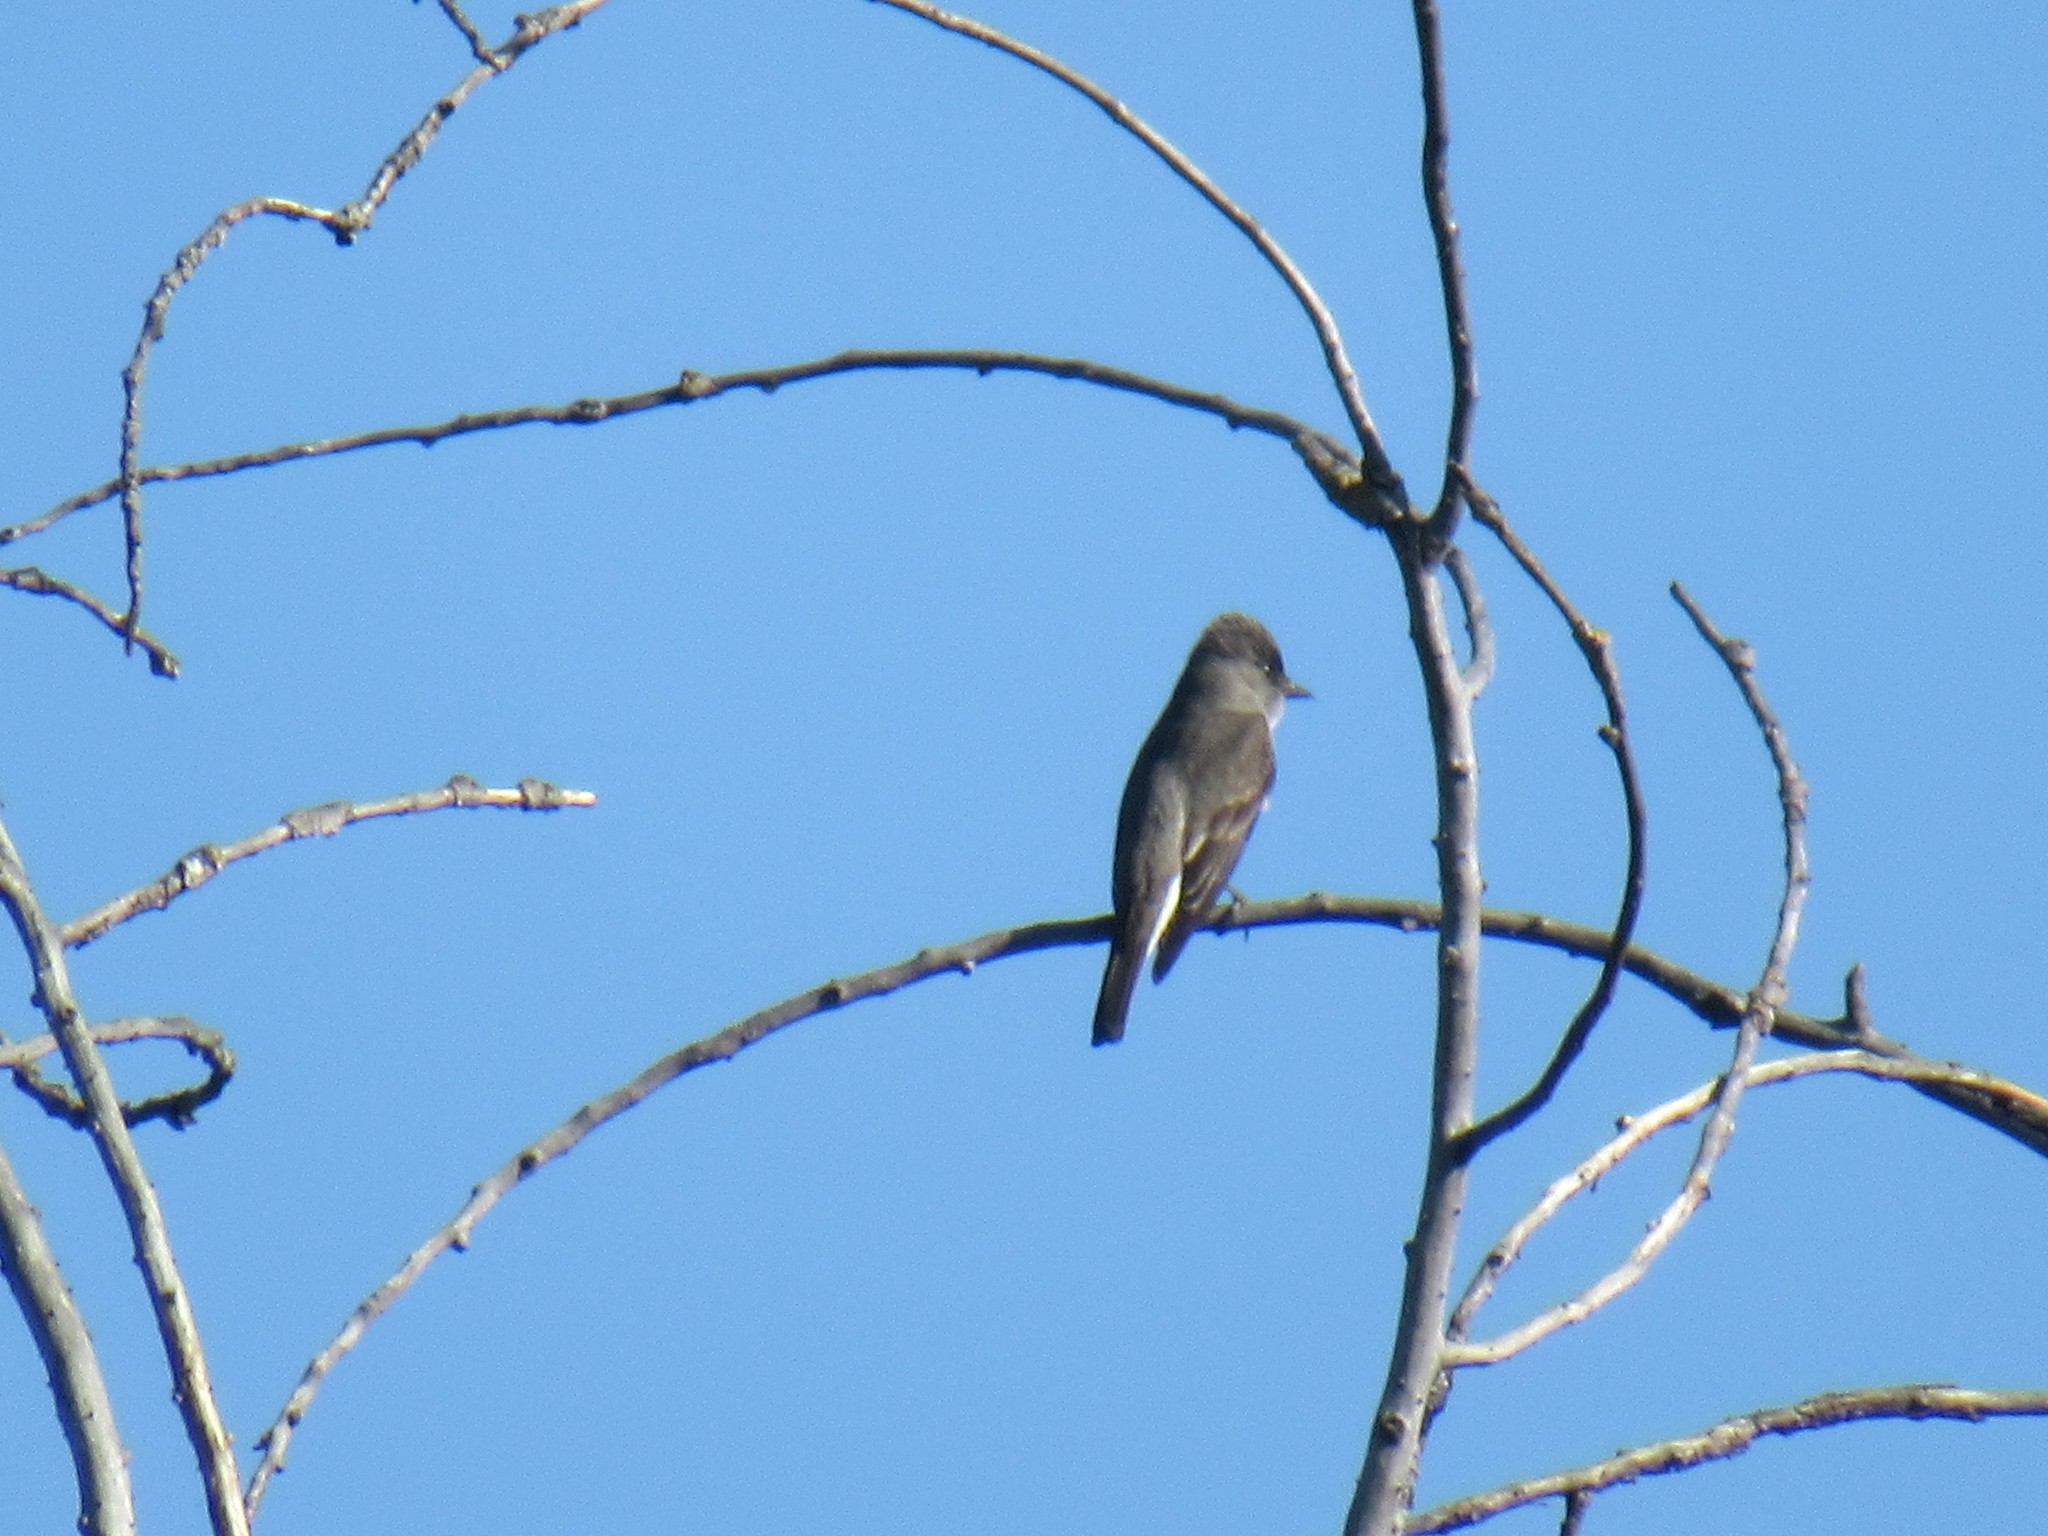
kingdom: Animalia
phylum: Chordata
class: Aves
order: Passeriformes
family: Tyrannidae
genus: Contopus
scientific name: Contopus cooperi
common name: Olive-sided flycatcher
